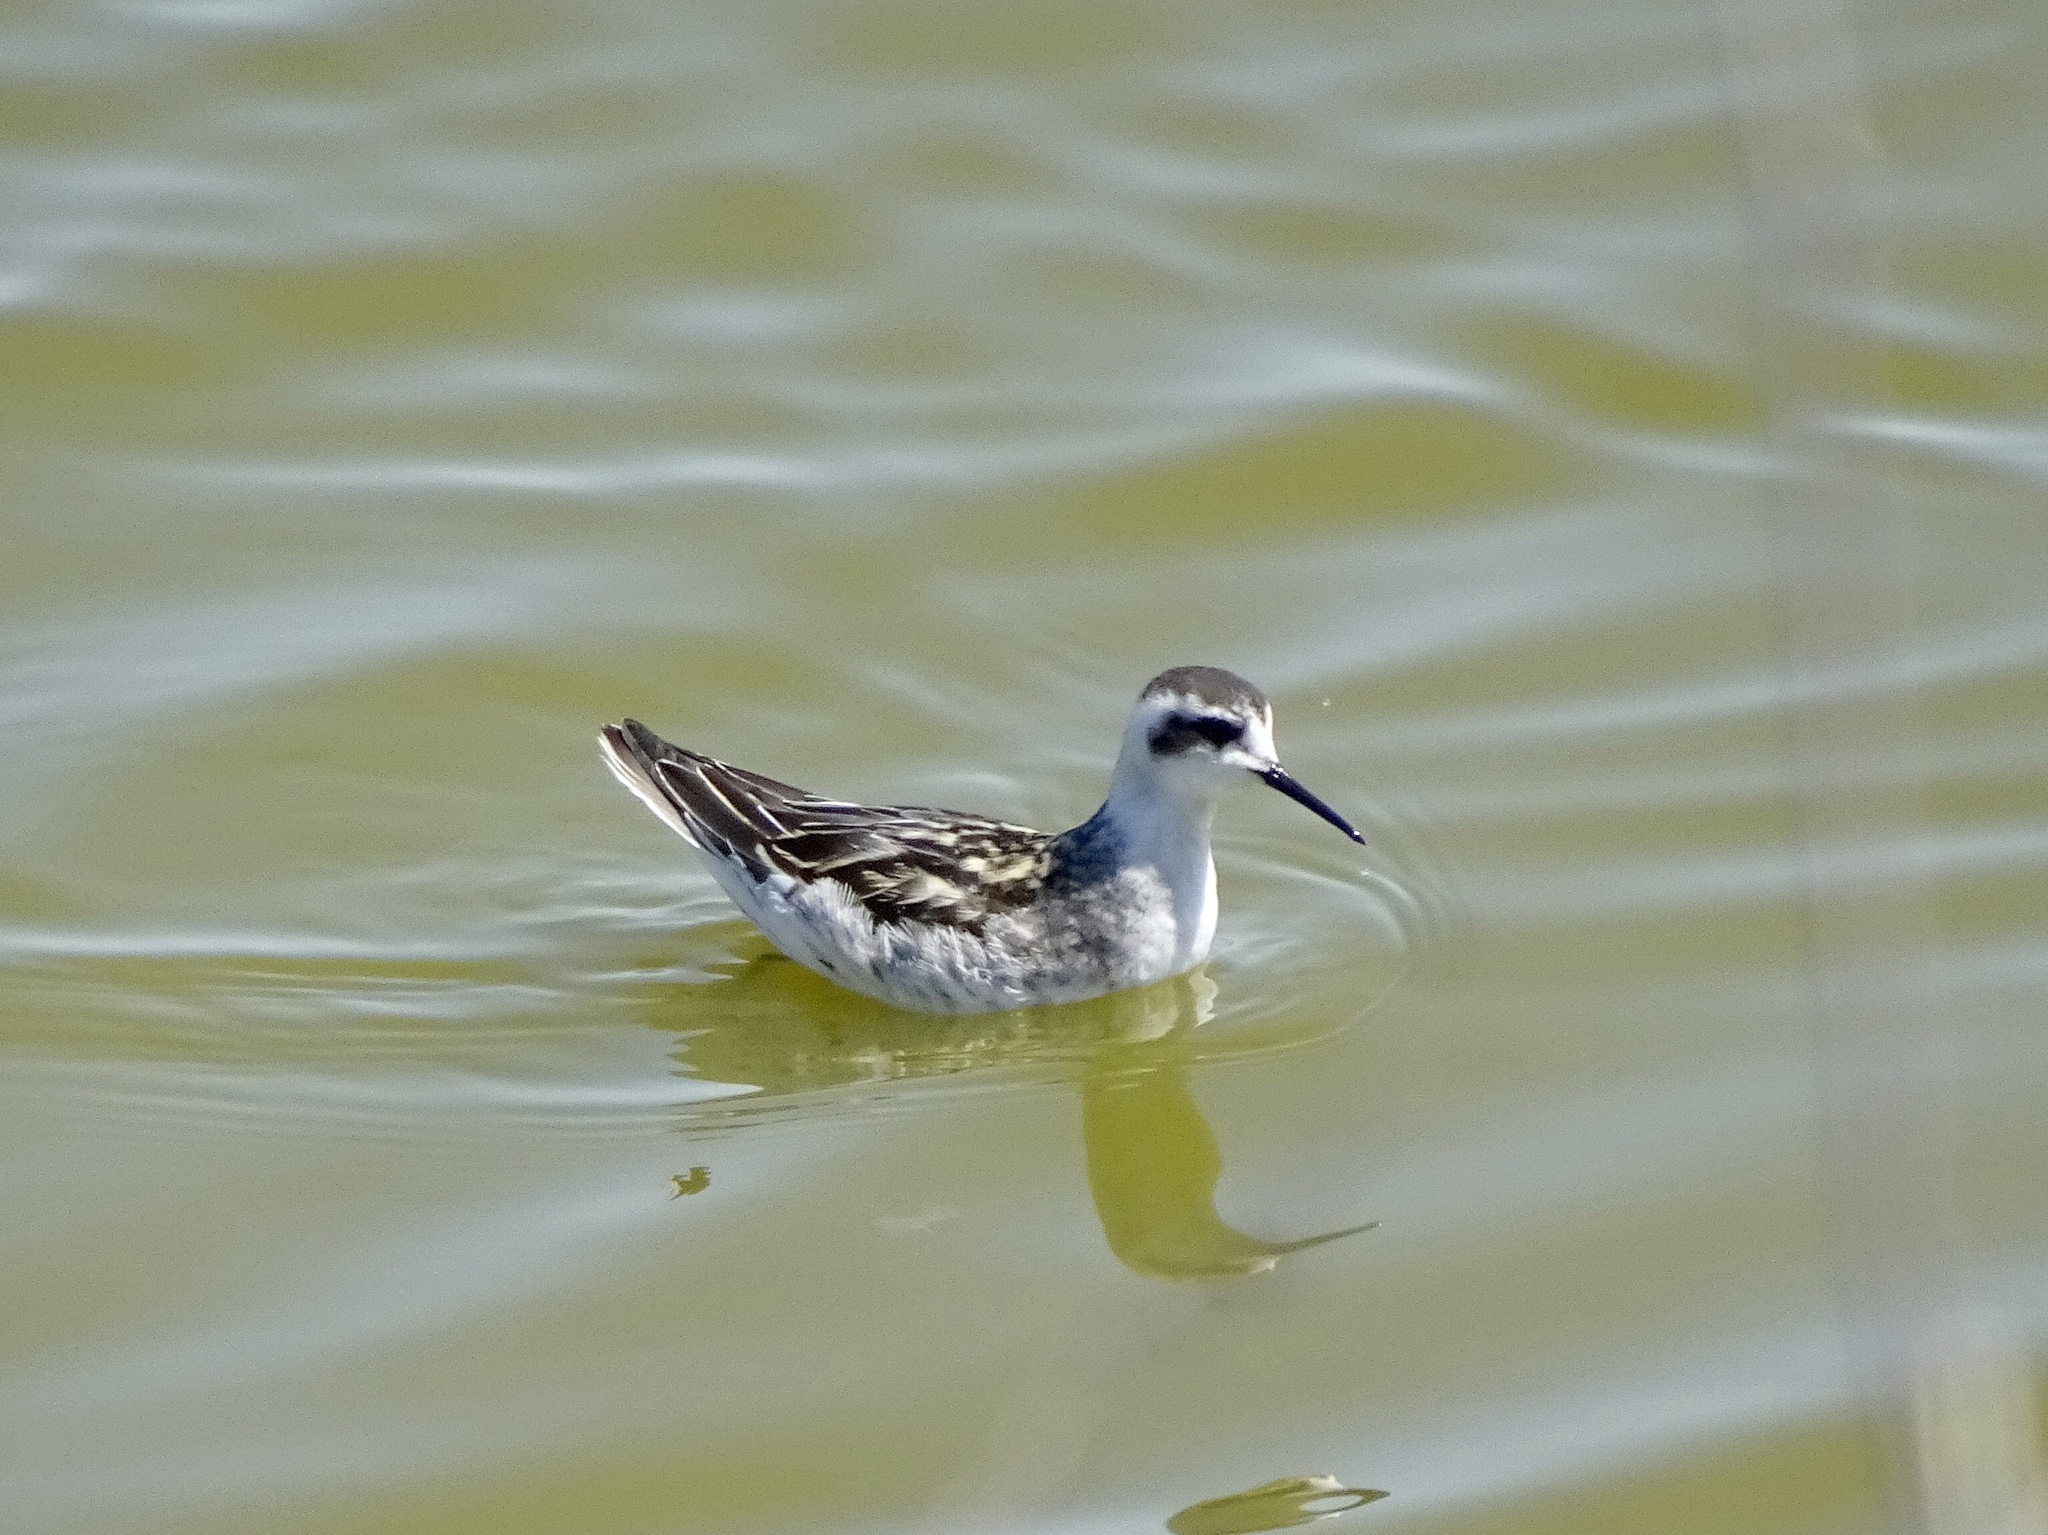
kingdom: Animalia
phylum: Chordata
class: Aves
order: Charadriiformes
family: Scolopacidae
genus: Phalaropus
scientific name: Phalaropus lobatus
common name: Red-necked phalarope
